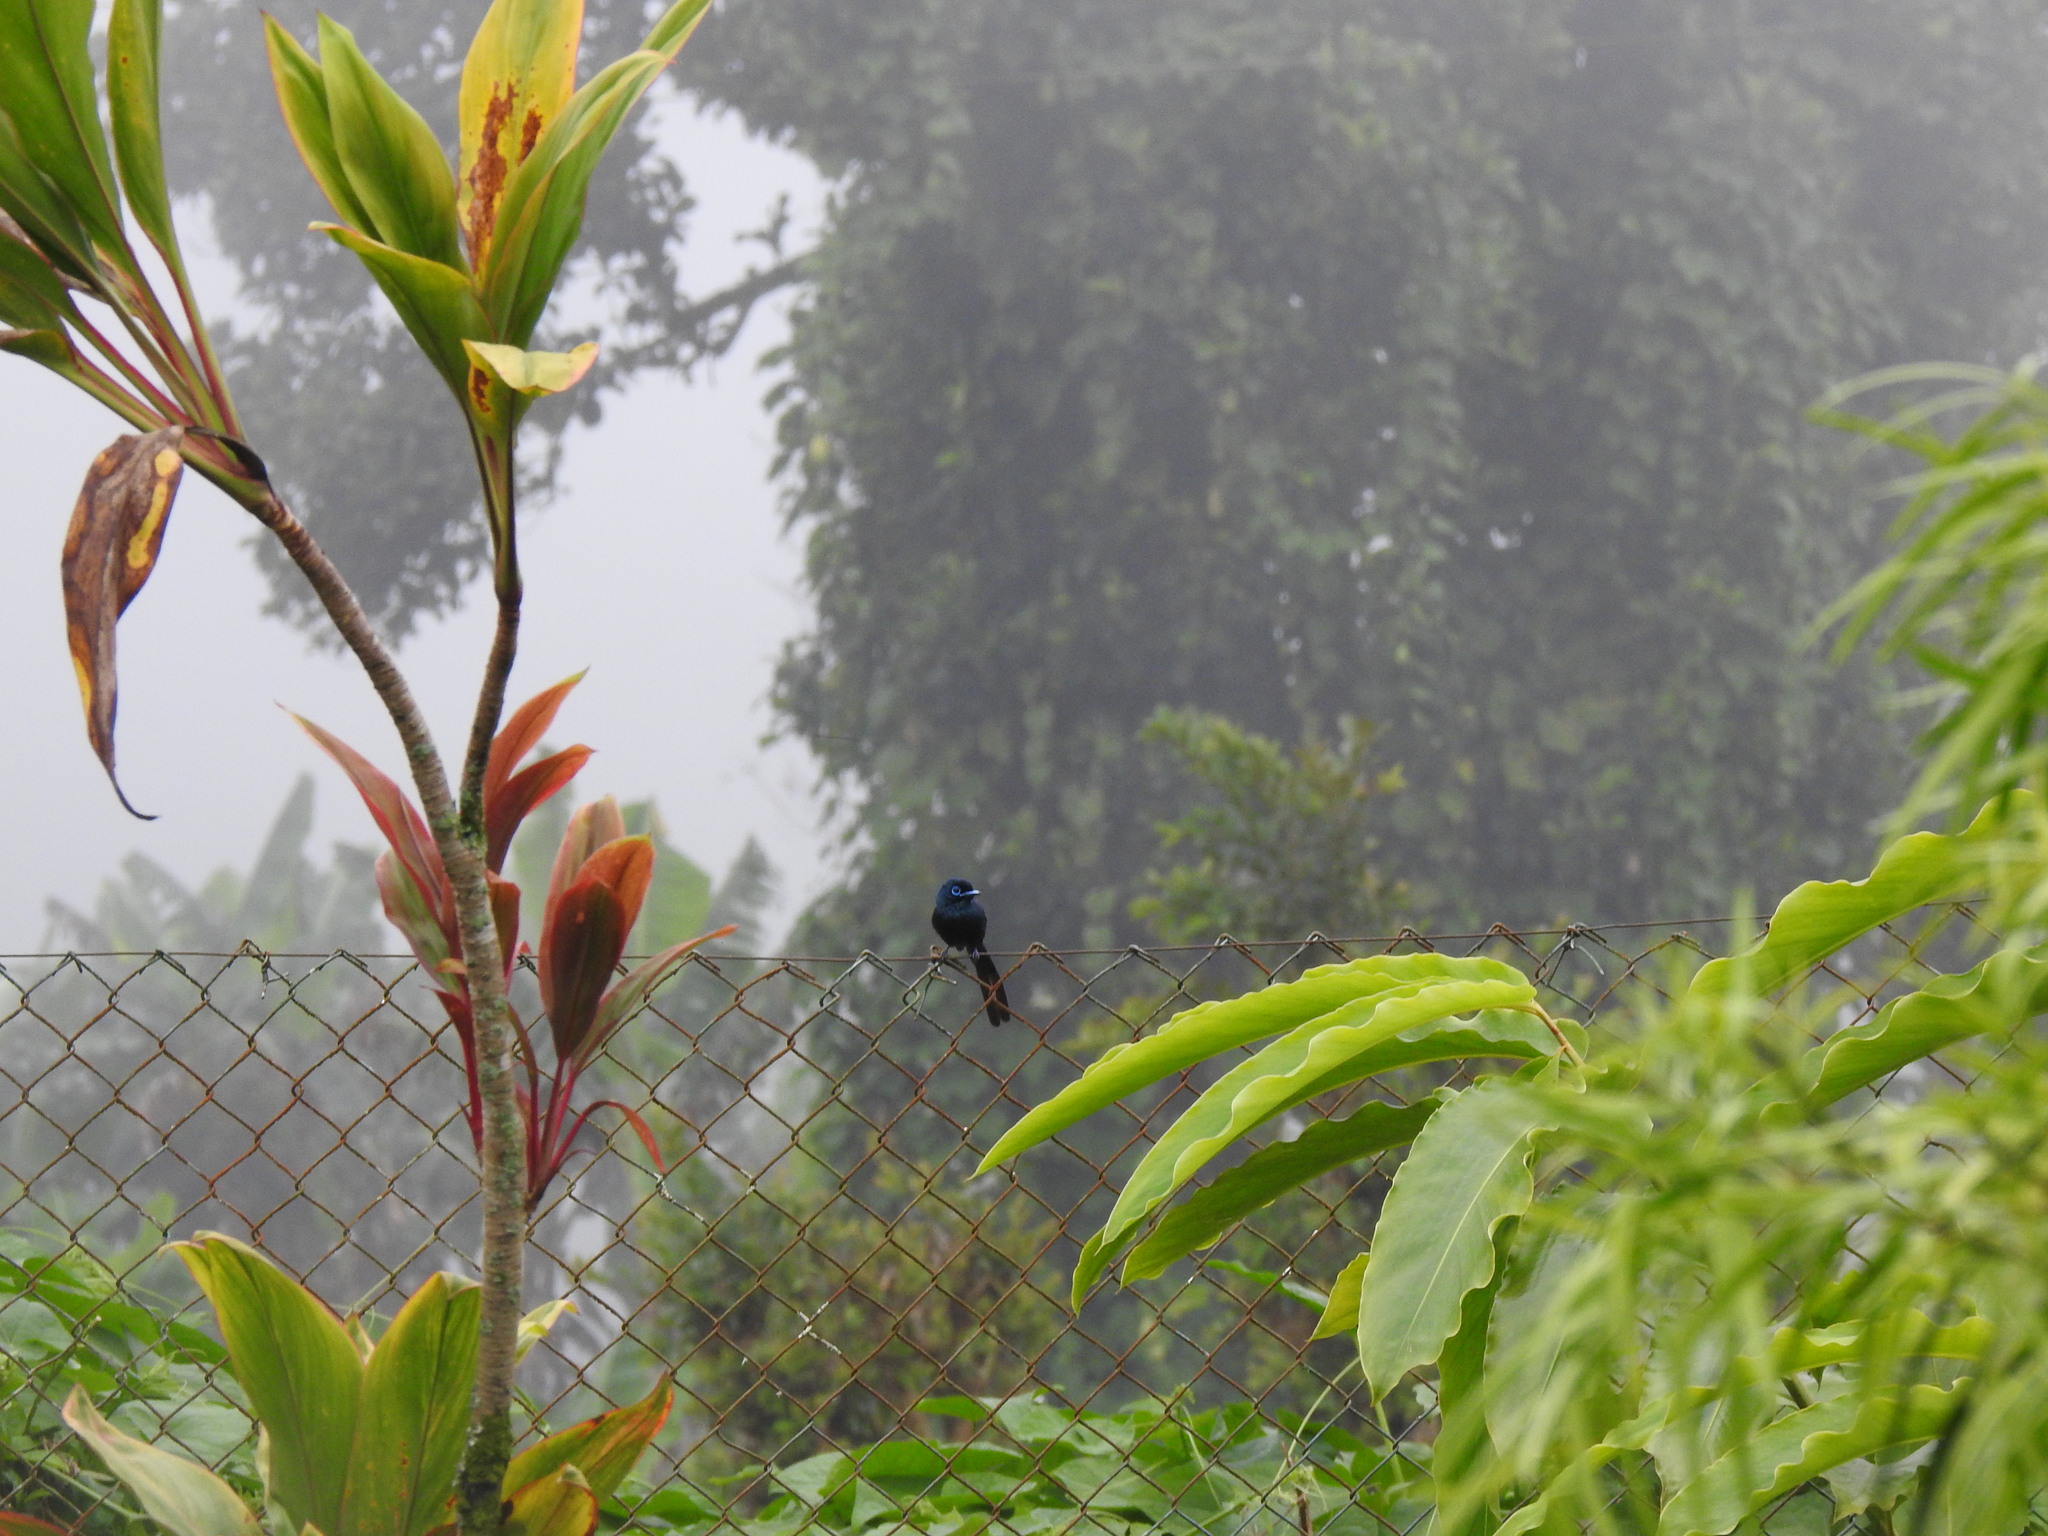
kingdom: Animalia
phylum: Chordata
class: Aves
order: Passeriformes
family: Monarchidae
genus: Terpsiphone
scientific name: Terpsiphone atrochalybeia
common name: Sao tome paradise flycatcher
